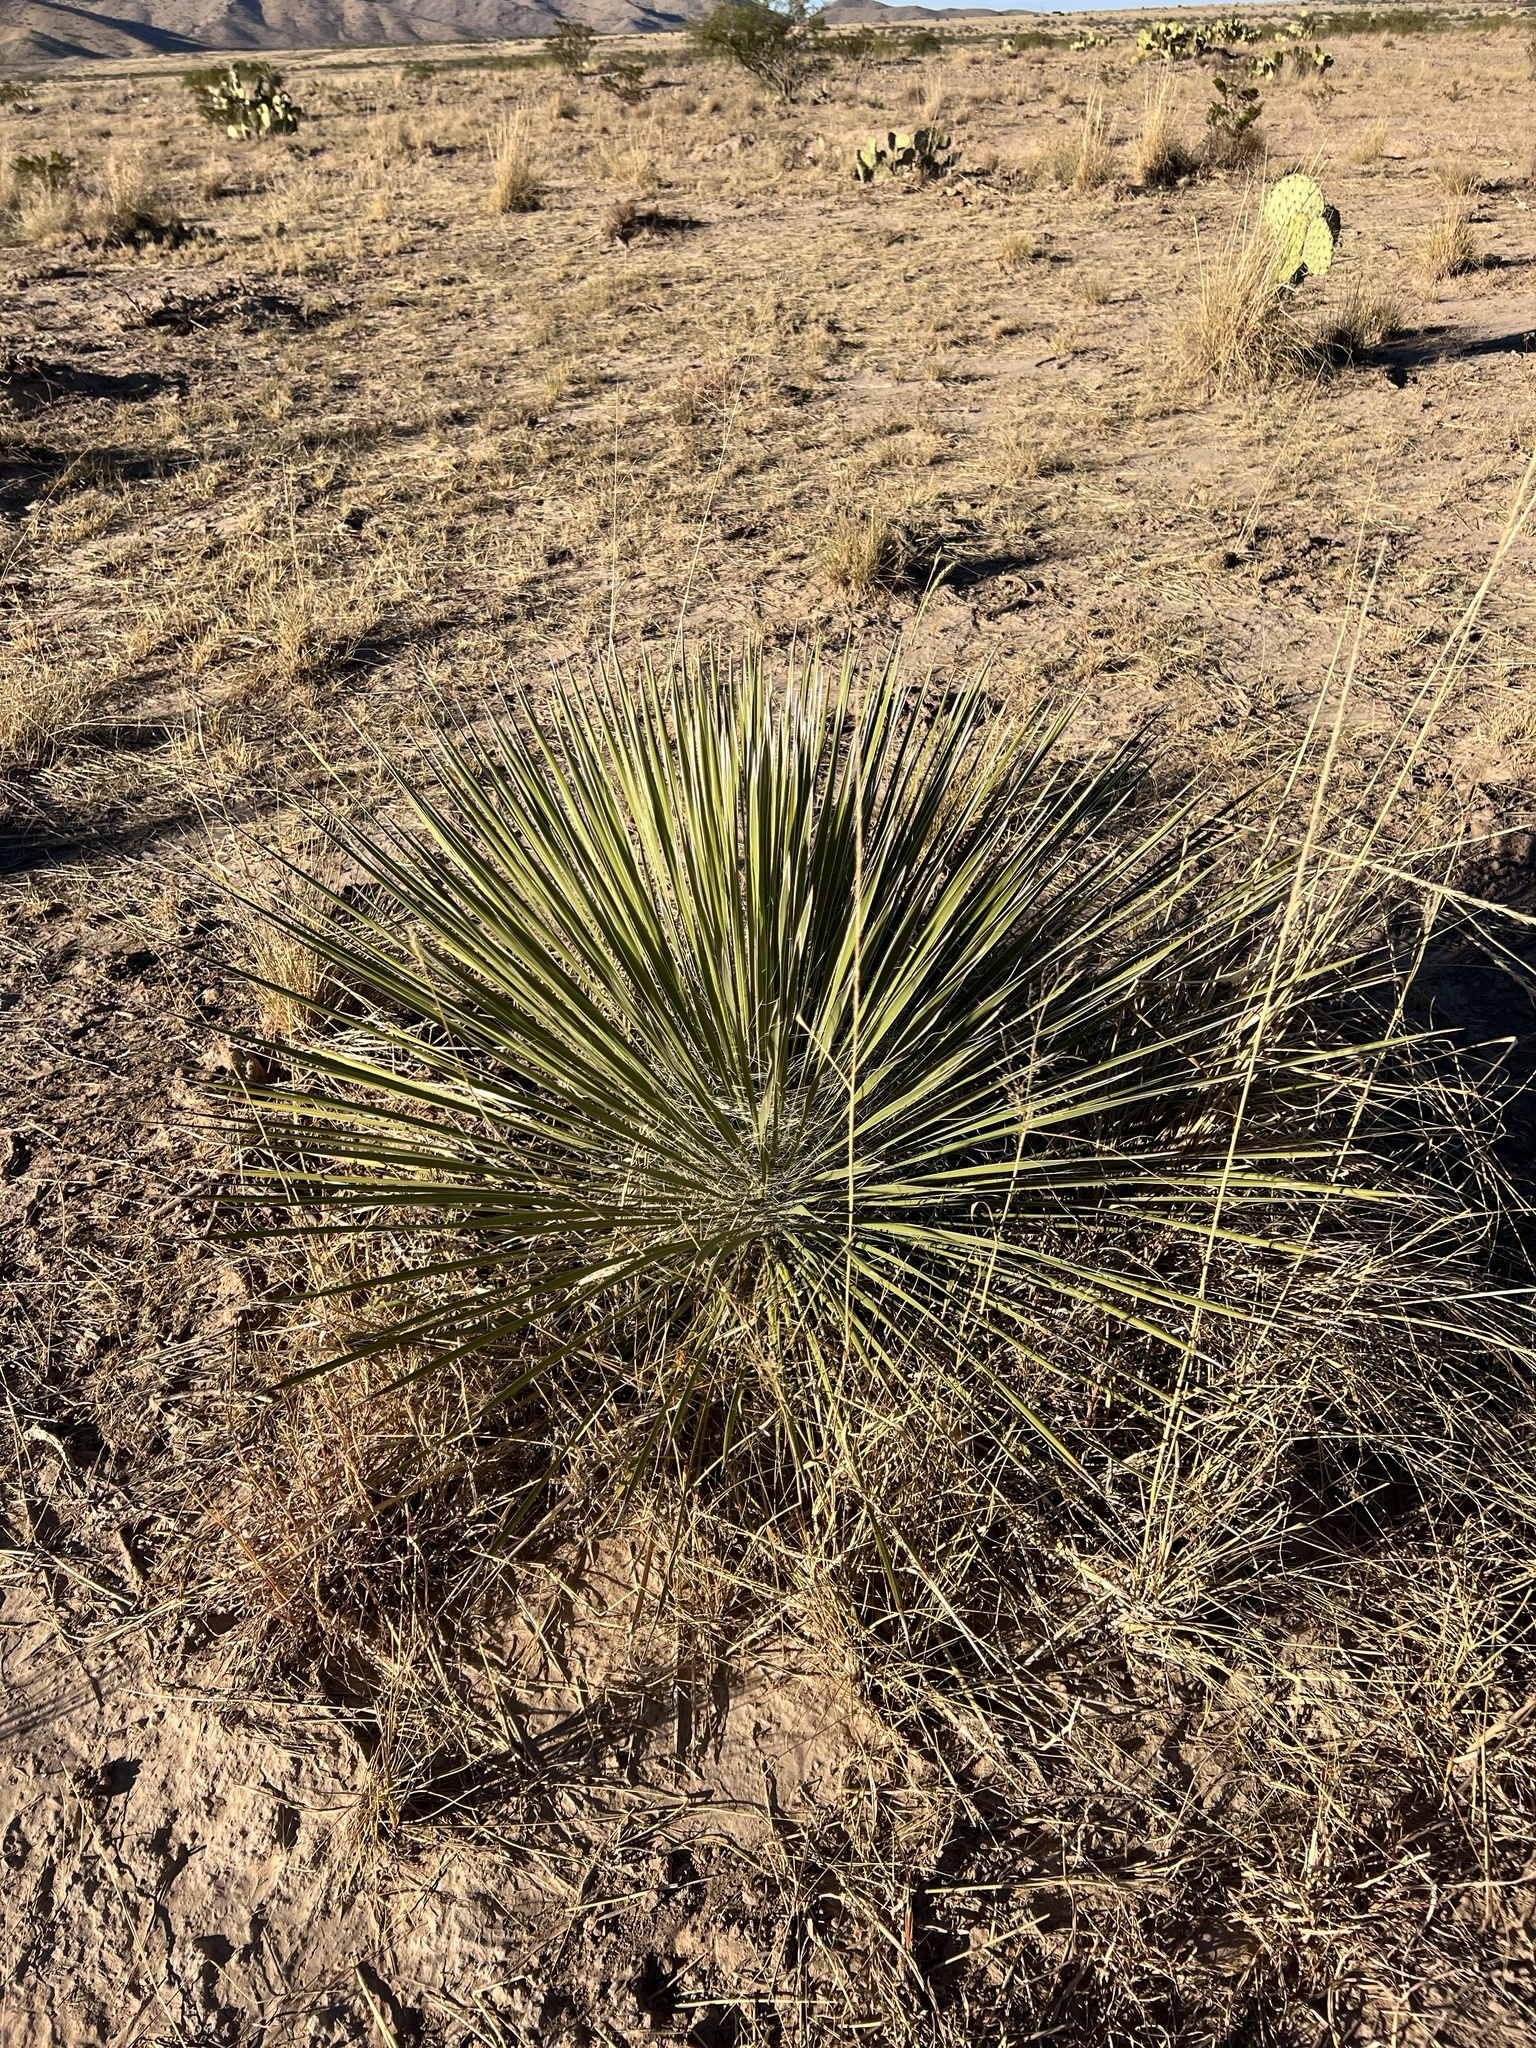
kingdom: Plantae
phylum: Tracheophyta
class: Liliopsida
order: Asparagales
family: Asparagaceae
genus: Yucca
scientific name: Yucca elata
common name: Palmella
